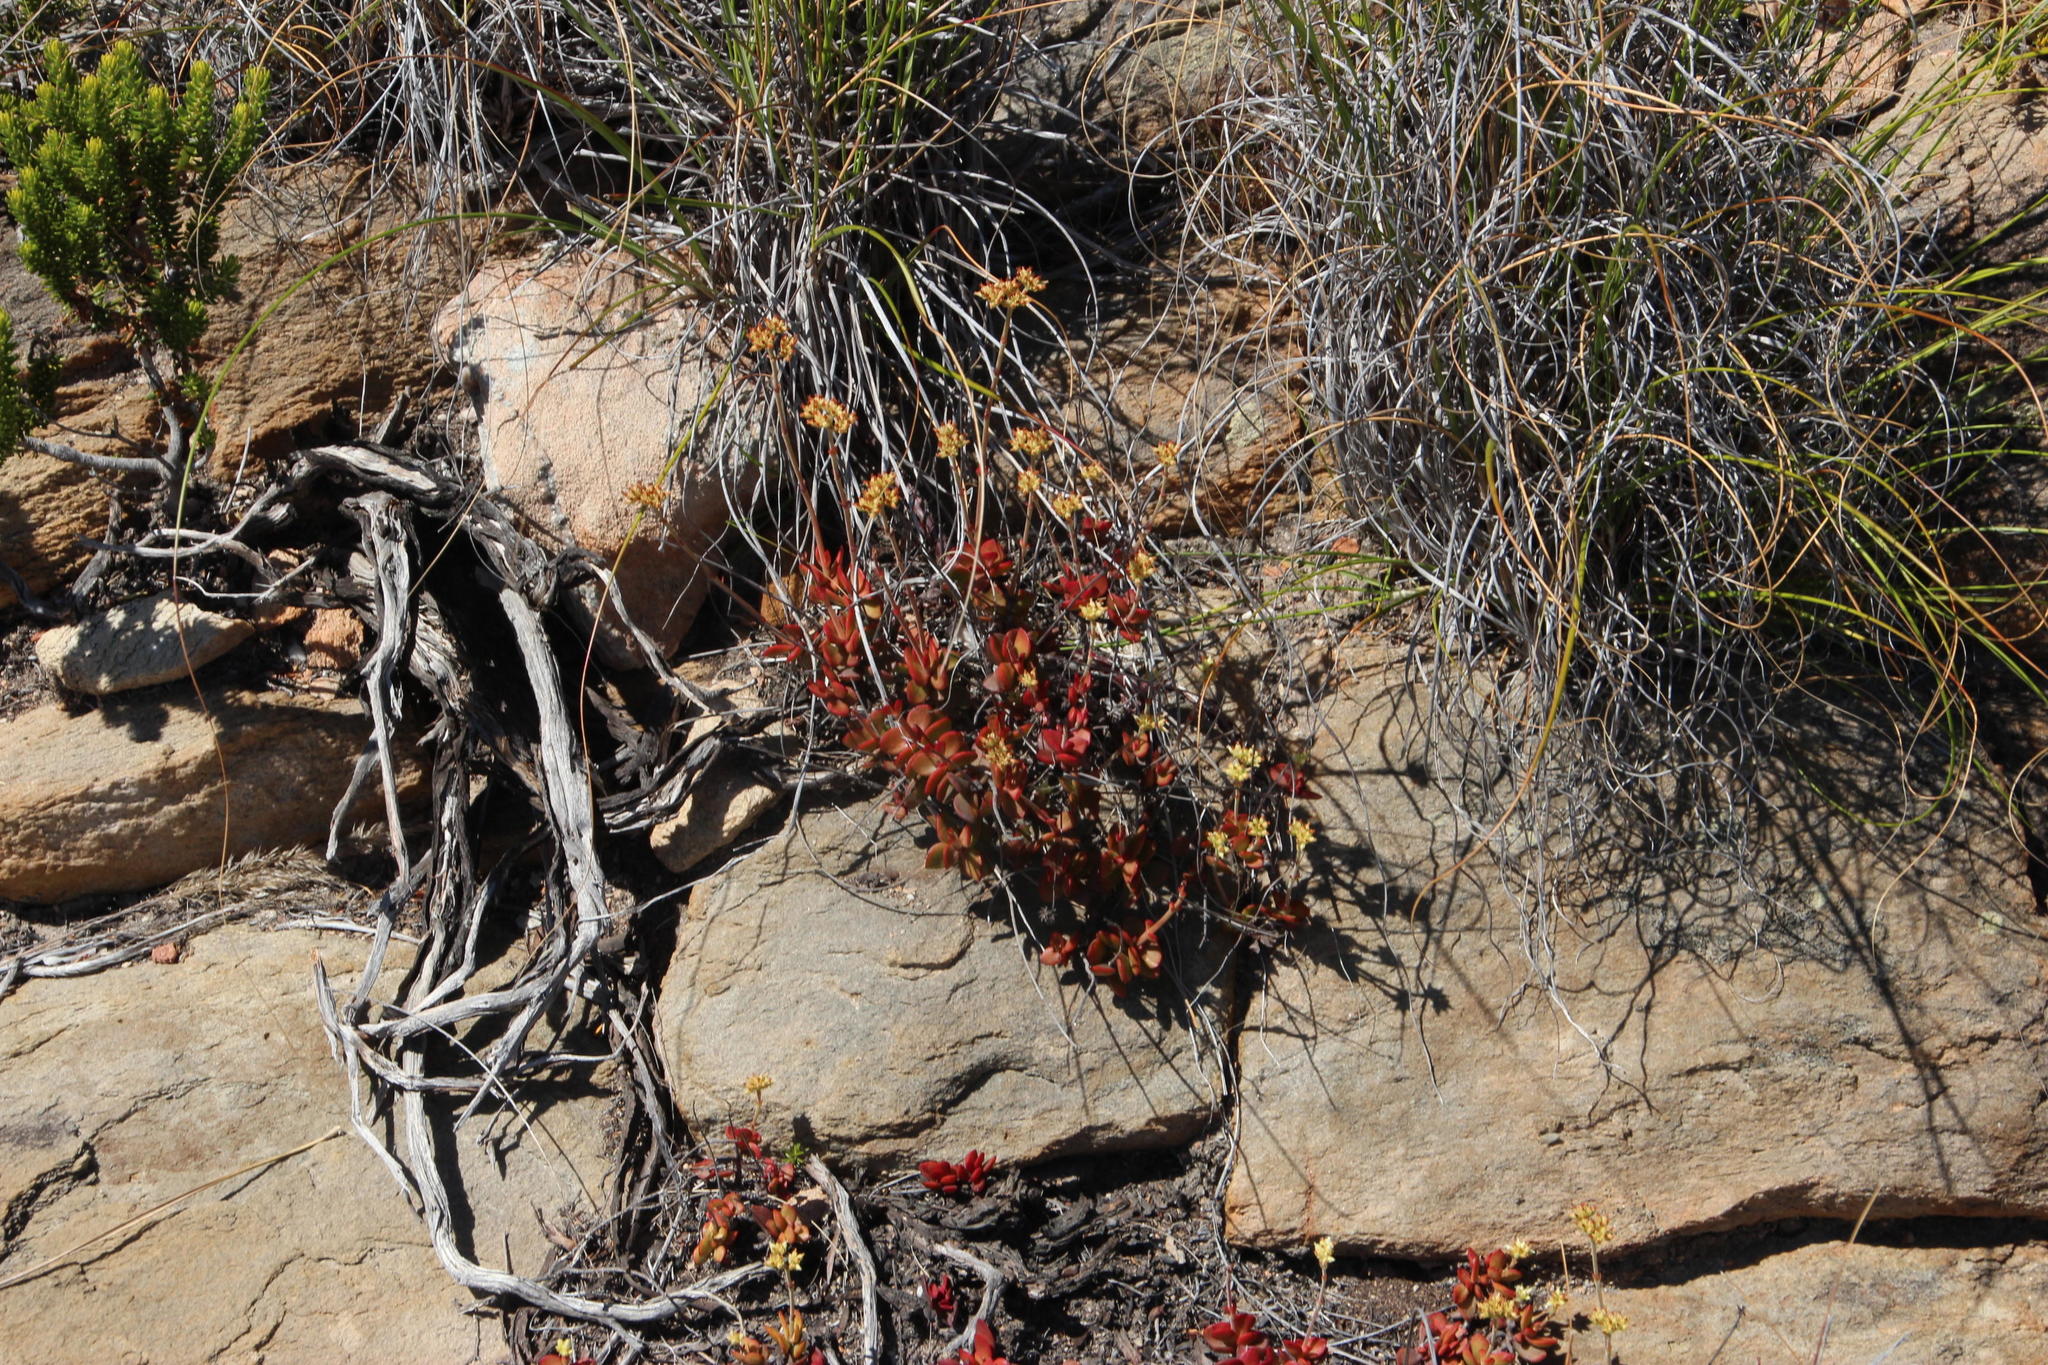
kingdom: Plantae
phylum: Tracheophyta
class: Magnoliopsida
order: Saxifragales
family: Crassulaceae
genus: Crassula
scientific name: Crassula atropurpurea
